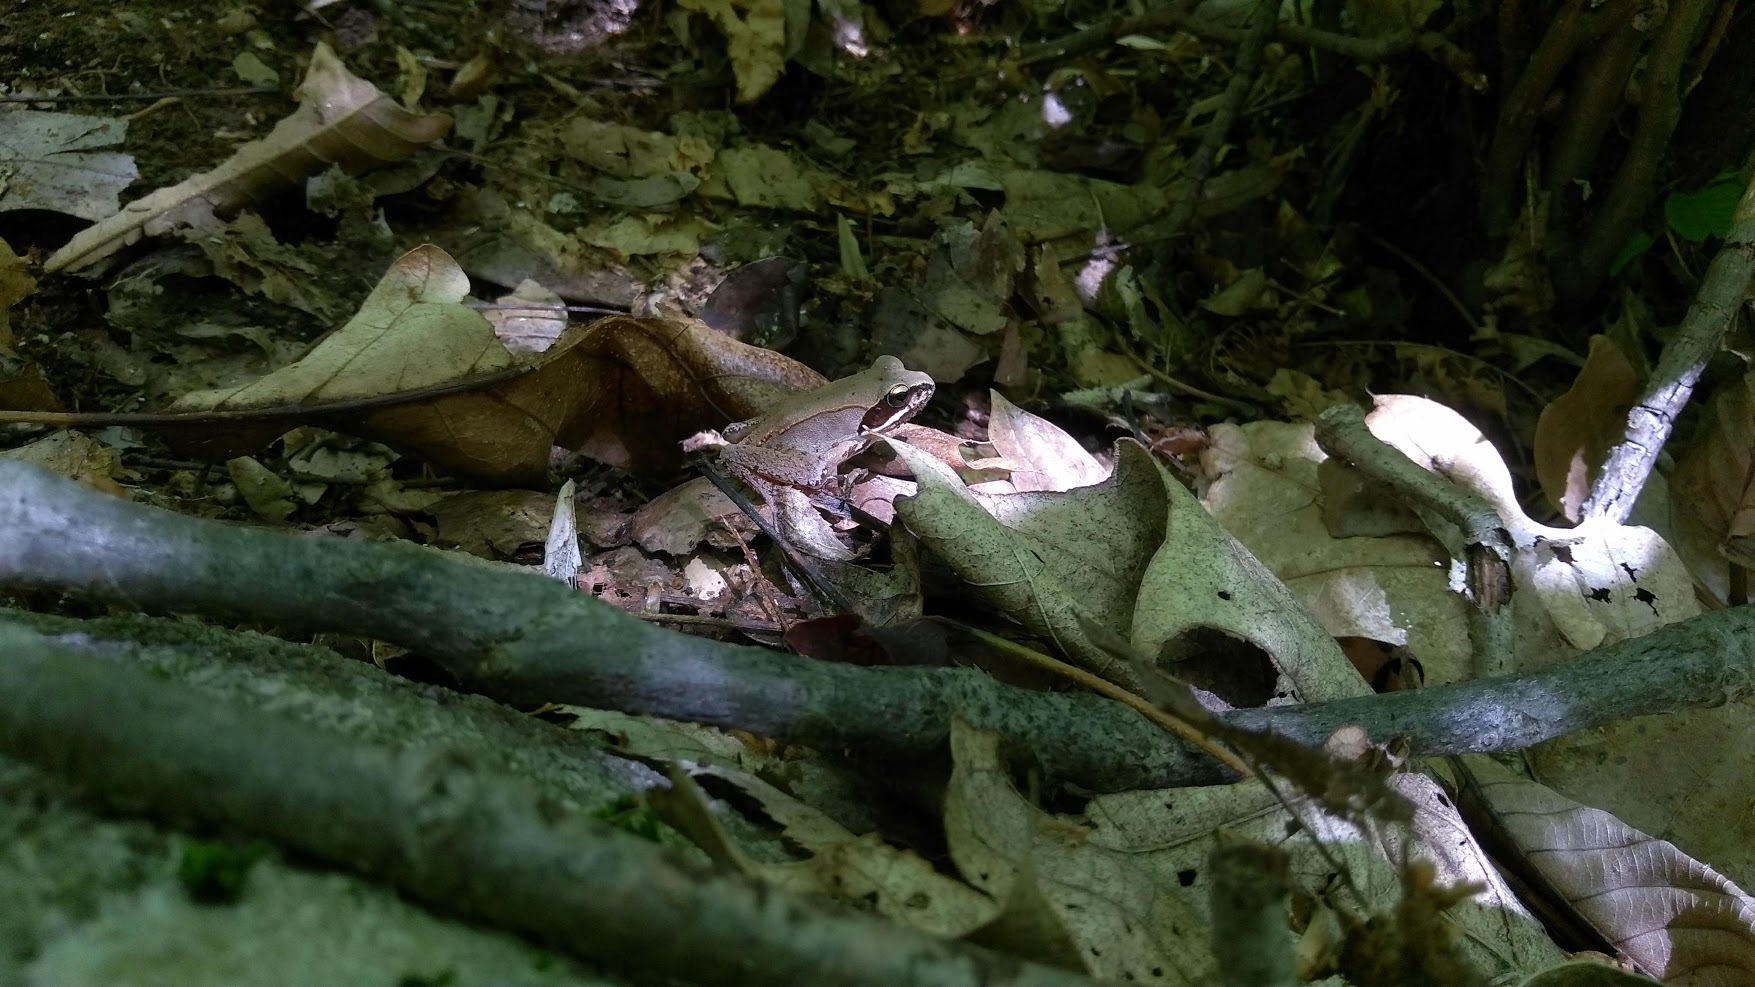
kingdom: Animalia
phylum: Chordata
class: Amphibia
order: Anura
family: Ranidae
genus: Lithobates
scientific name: Lithobates sylvaticus
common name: Wood frog
